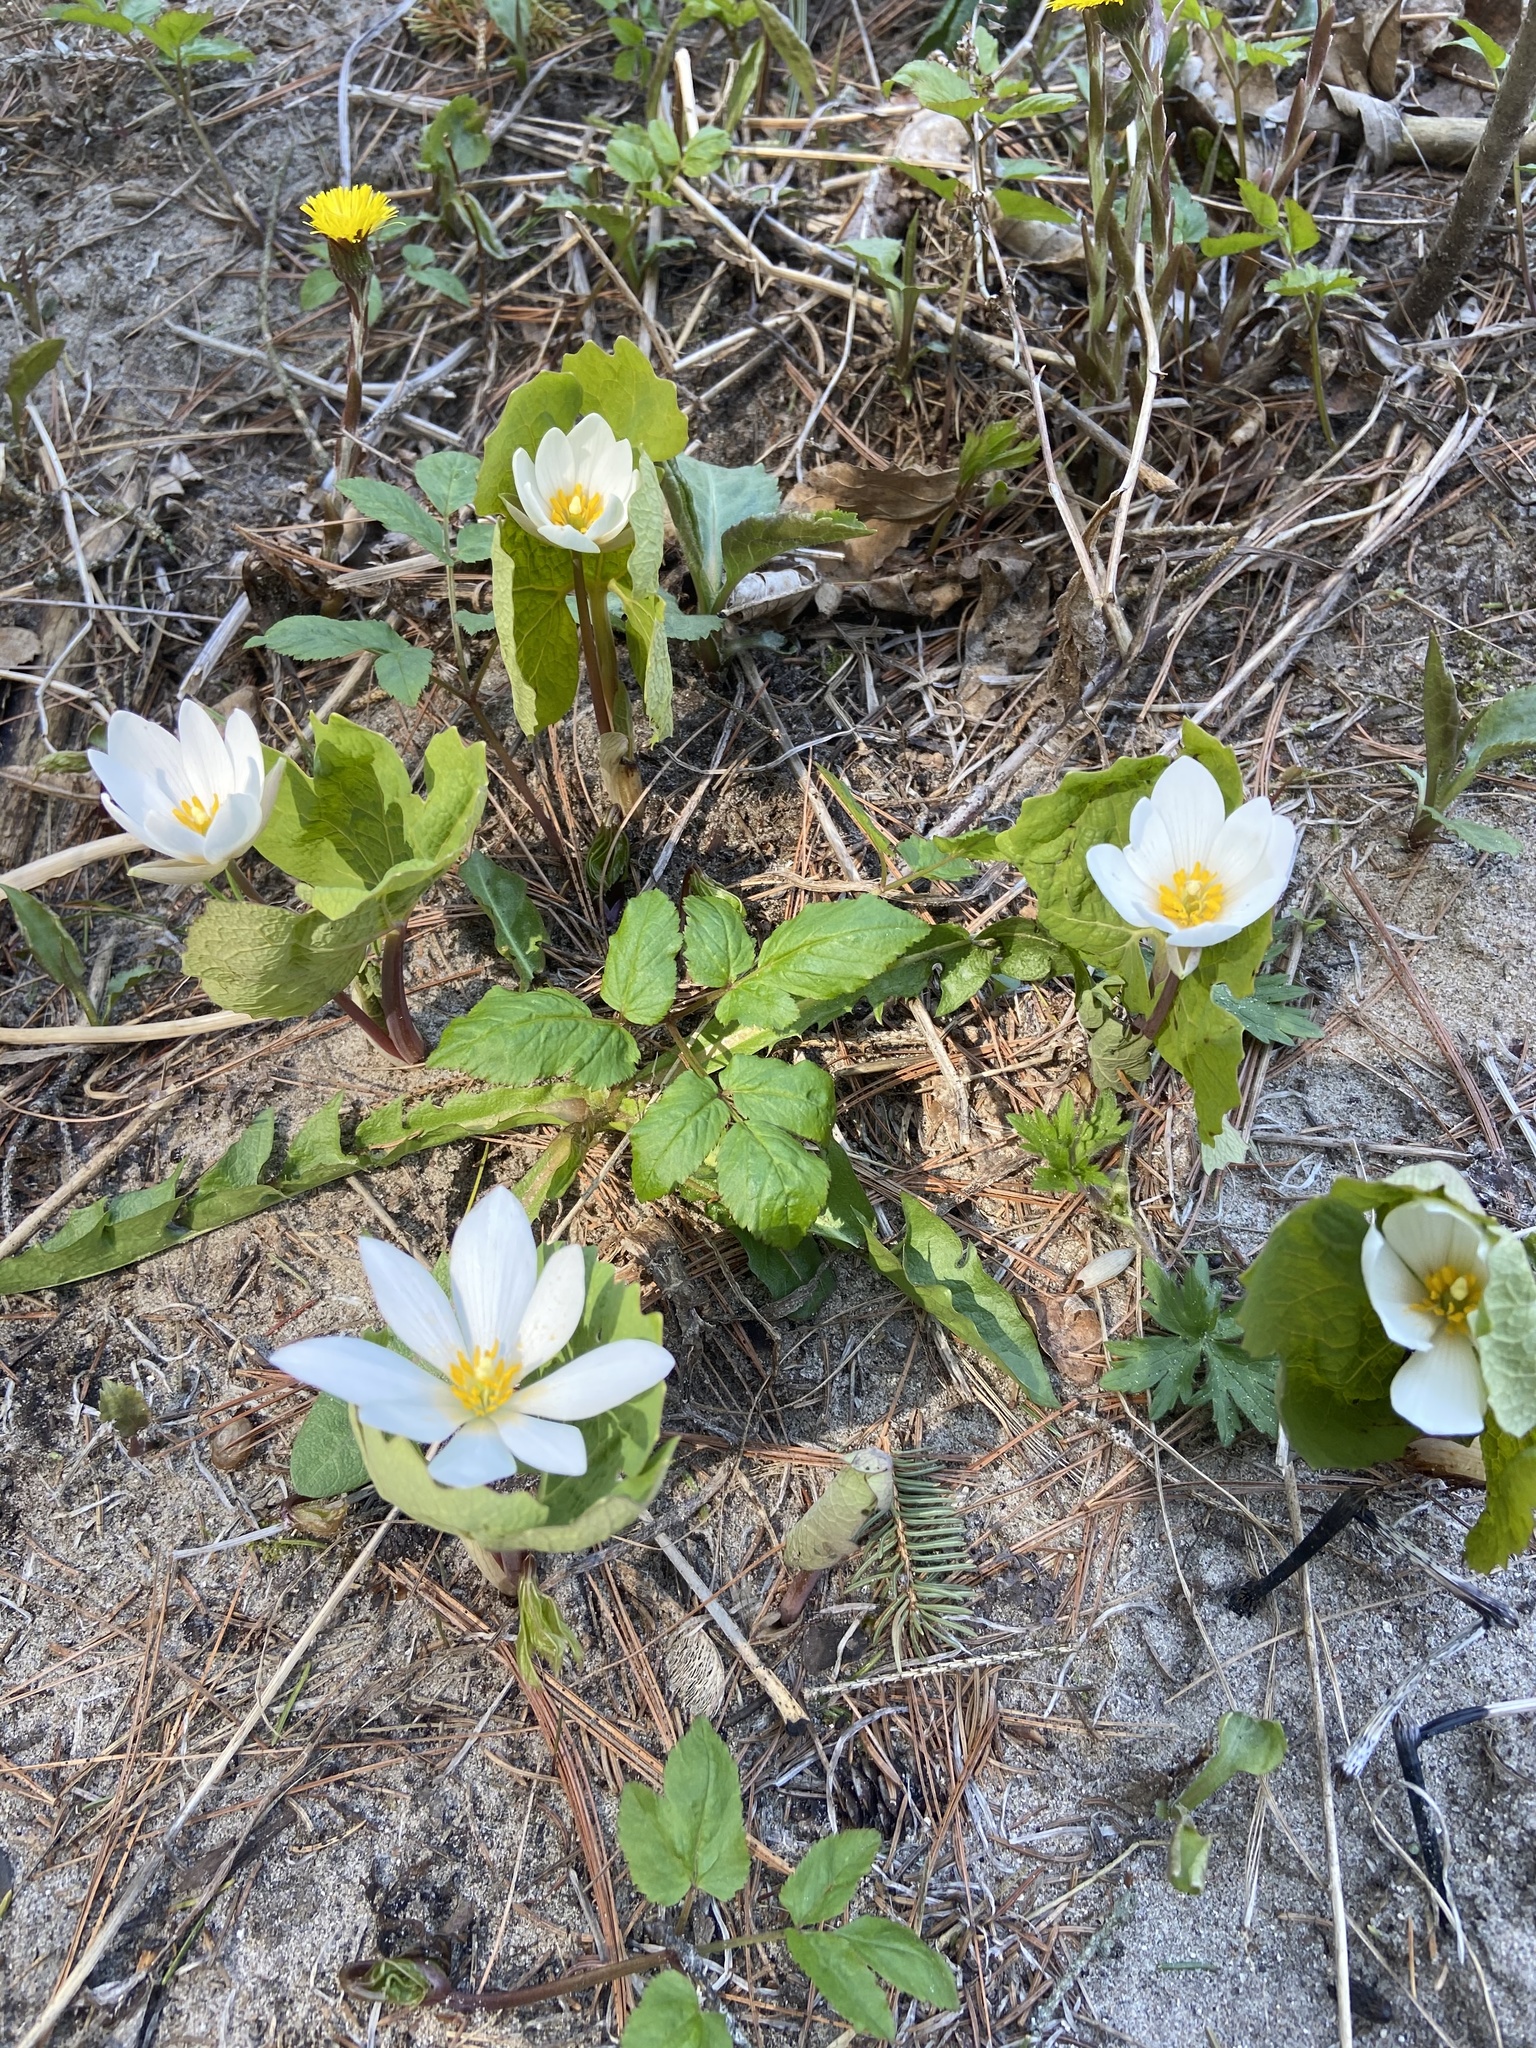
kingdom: Plantae
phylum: Tracheophyta
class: Magnoliopsida
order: Ranunculales
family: Papaveraceae
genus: Sanguinaria
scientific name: Sanguinaria canadensis
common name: Bloodroot
